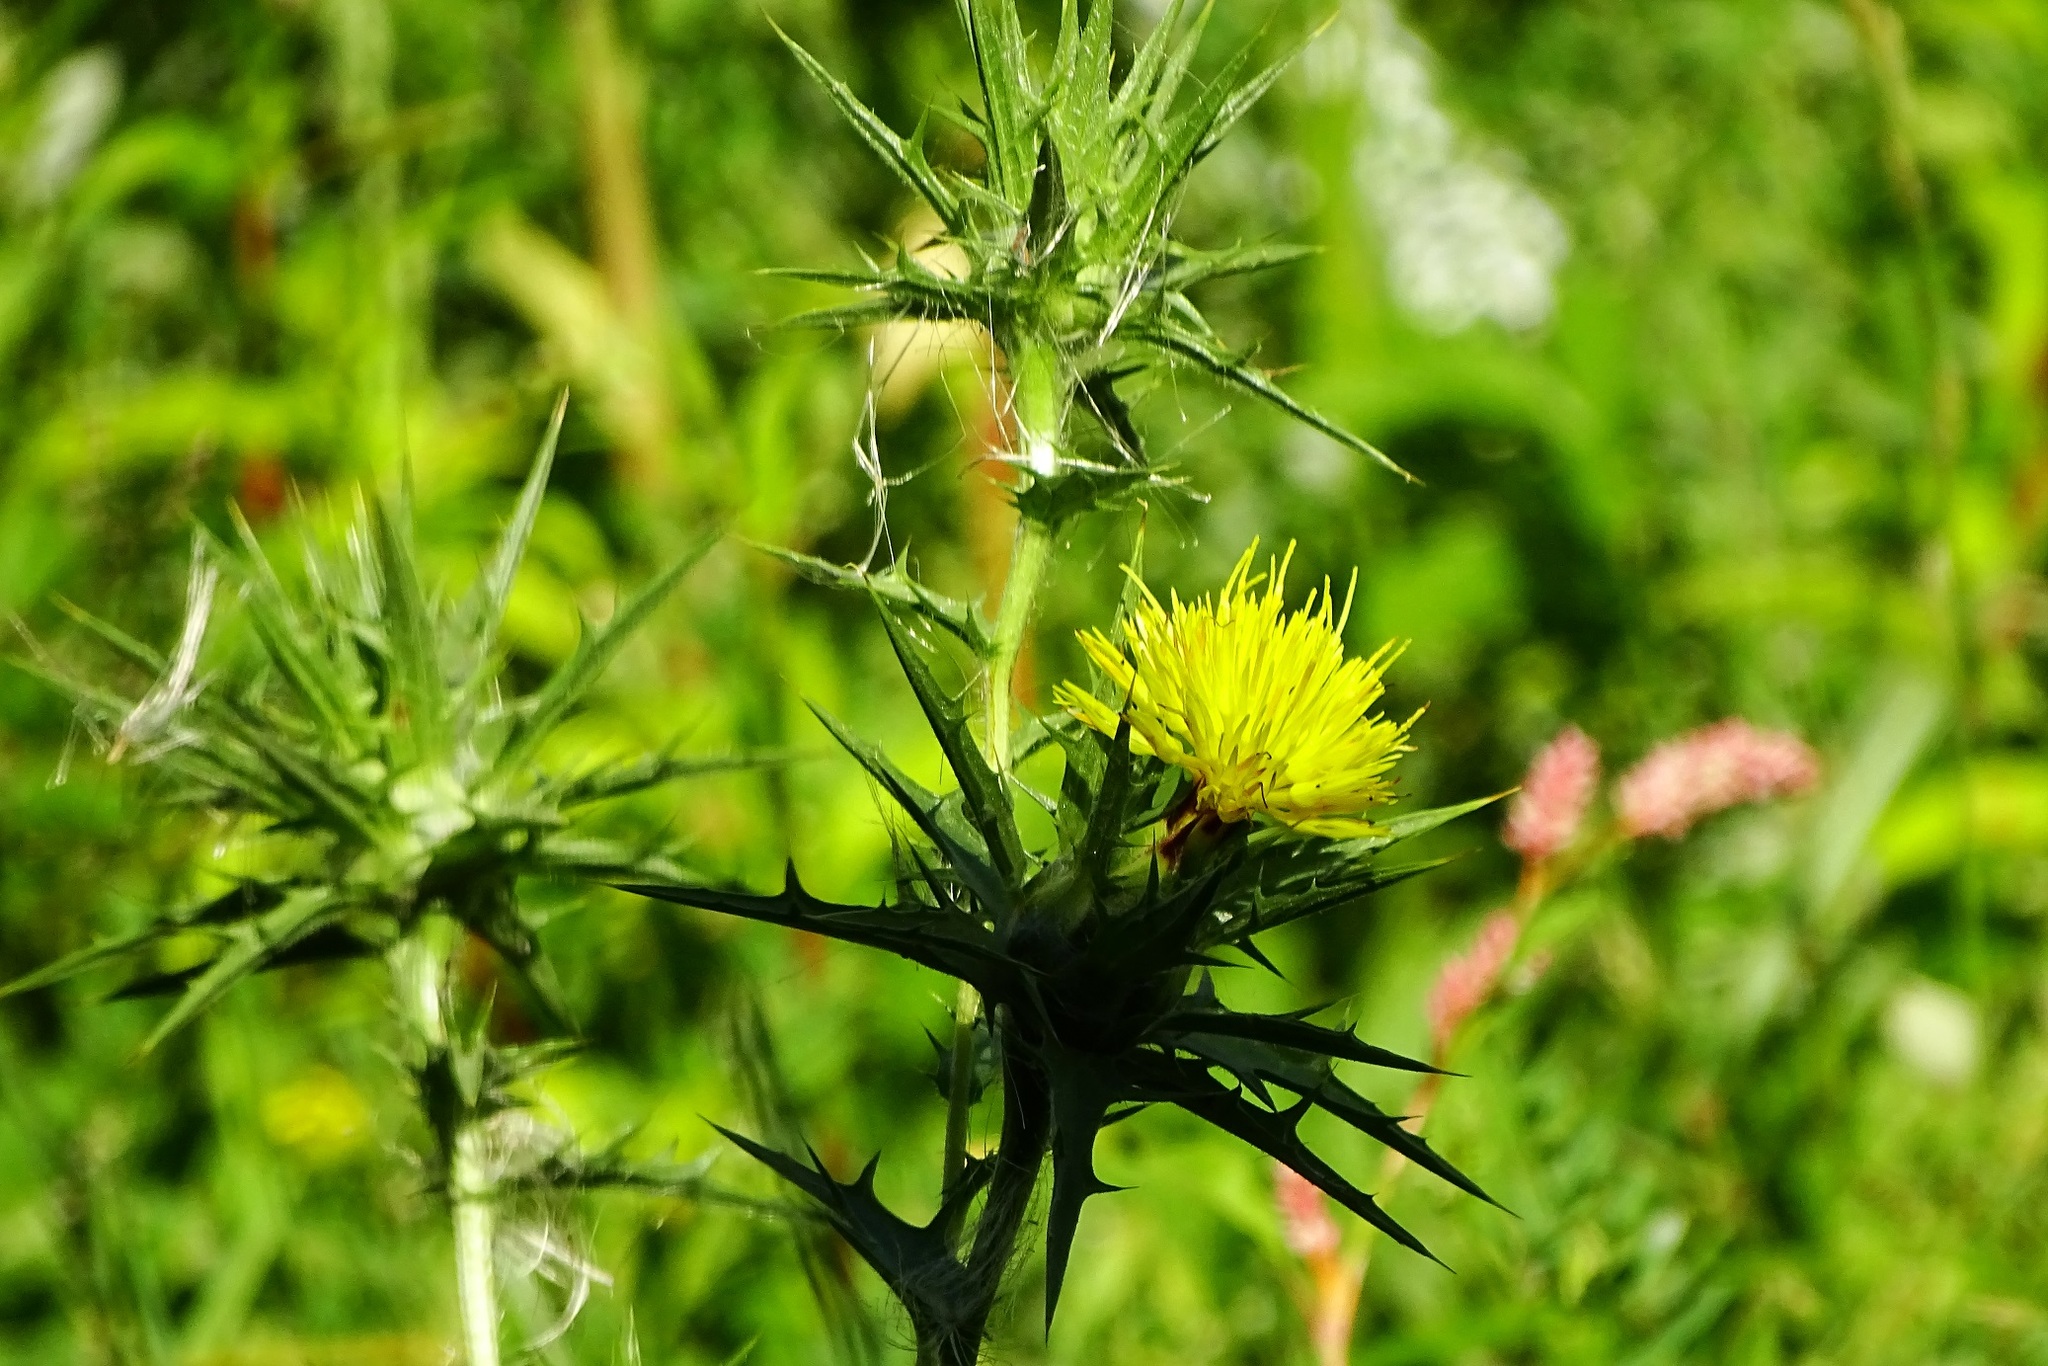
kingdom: Plantae
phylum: Tracheophyta
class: Magnoliopsida
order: Asterales
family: Asteraceae
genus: Carthamus
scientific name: Carthamus lanatus
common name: Downy safflower
